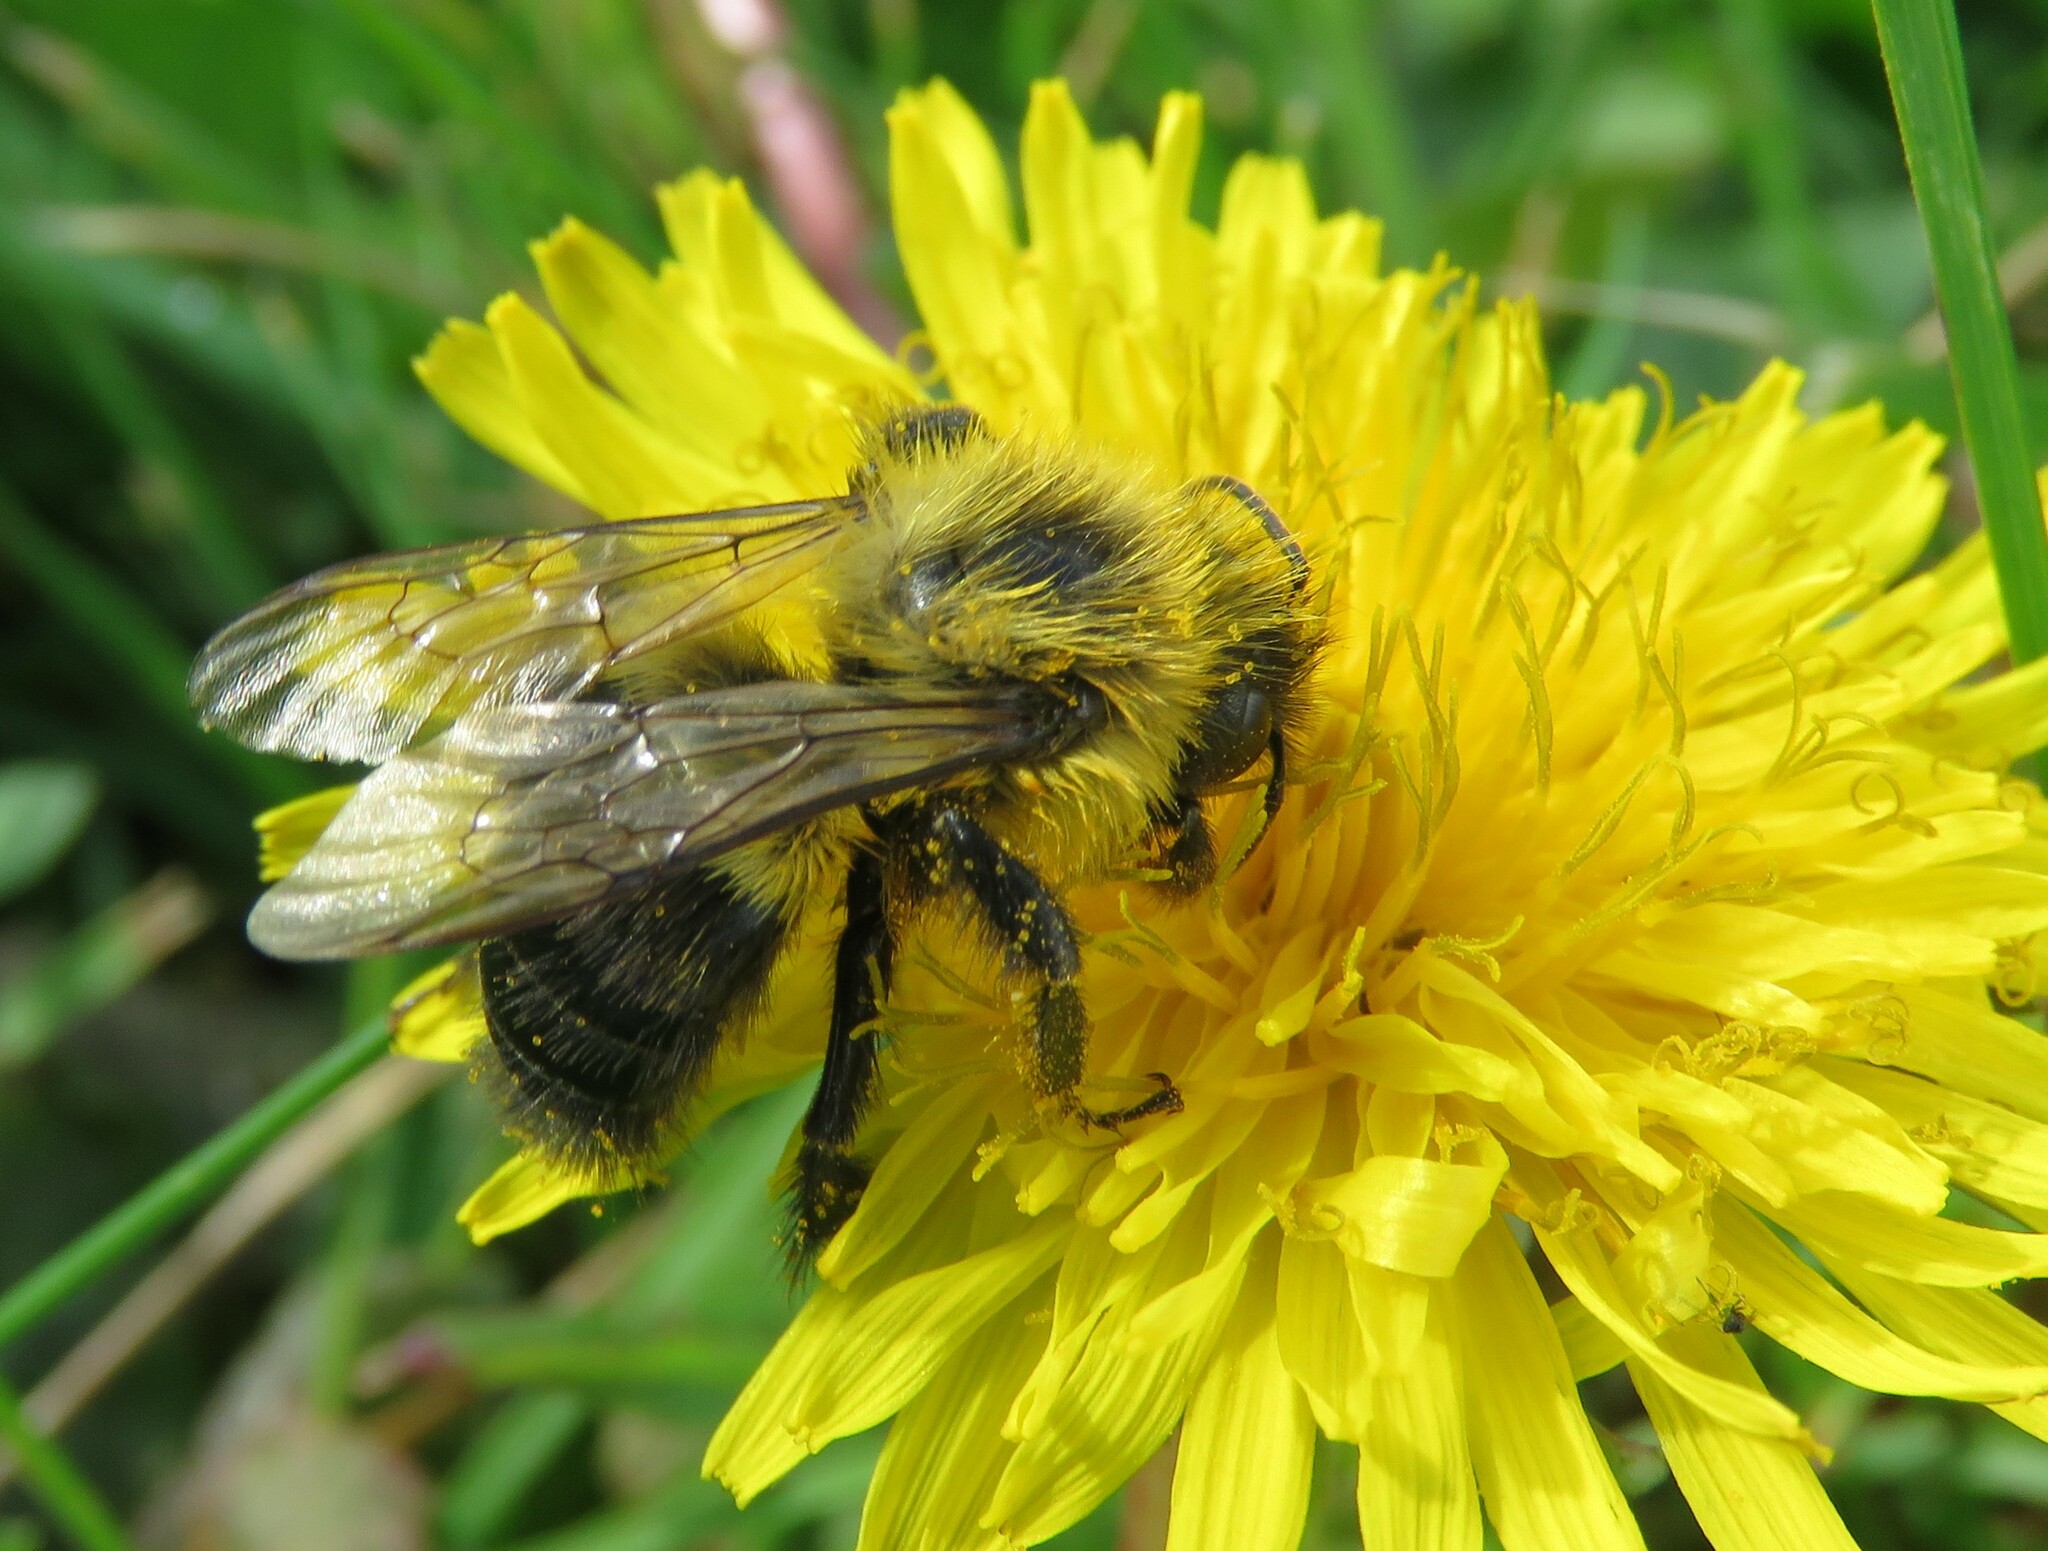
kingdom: Animalia
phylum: Arthropoda
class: Insecta
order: Hymenoptera
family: Apidae
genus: Bombus
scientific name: Bombus impatiens
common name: Common eastern bumble bee
